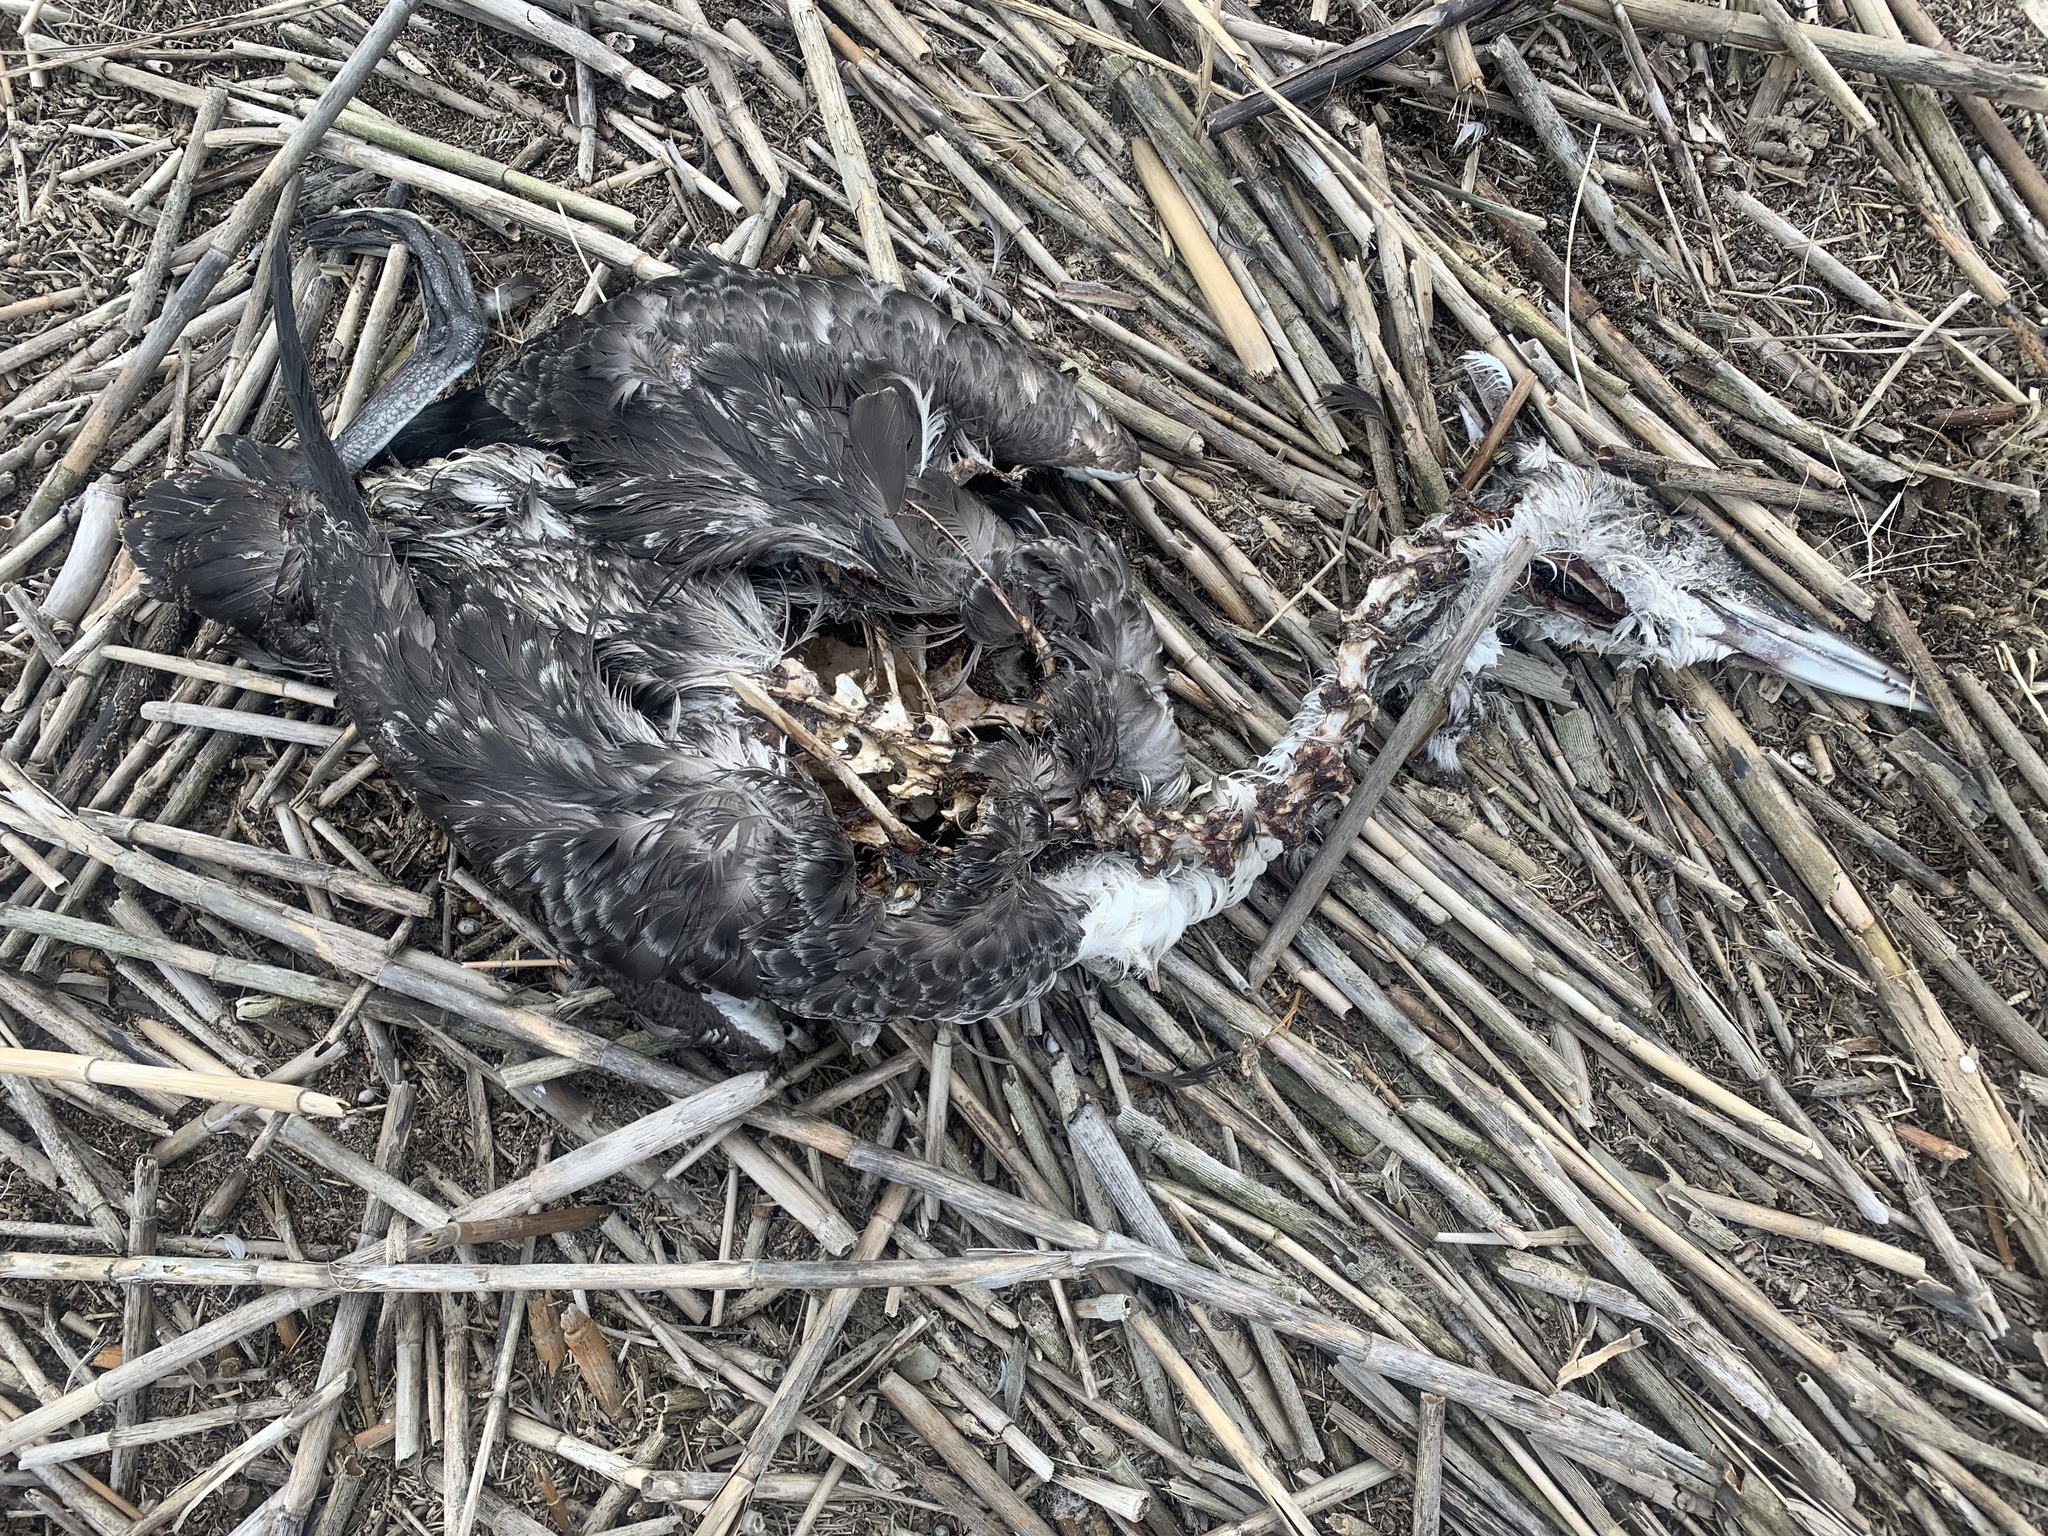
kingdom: Animalia
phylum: Chordata
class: Aves
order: Gaviiformes
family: Gaviidae
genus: Gavia
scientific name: Gavia immer
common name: Common loon
